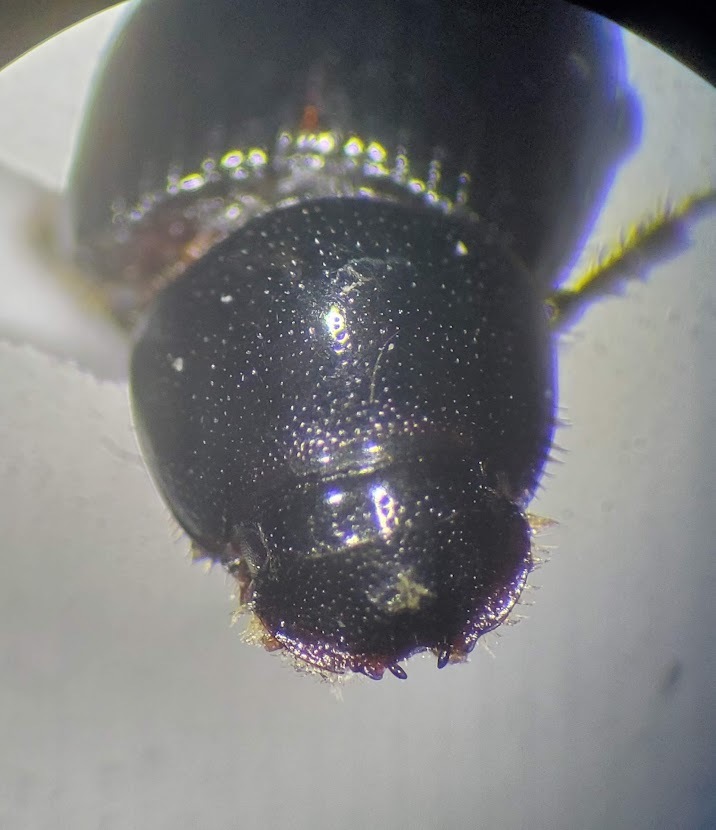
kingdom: Animalia
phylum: Arthropoda
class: Insecta
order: Coleoptera
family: Scarabaeidae
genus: Tetraclipeoides
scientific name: Tetraclipeoides dentigerulus
